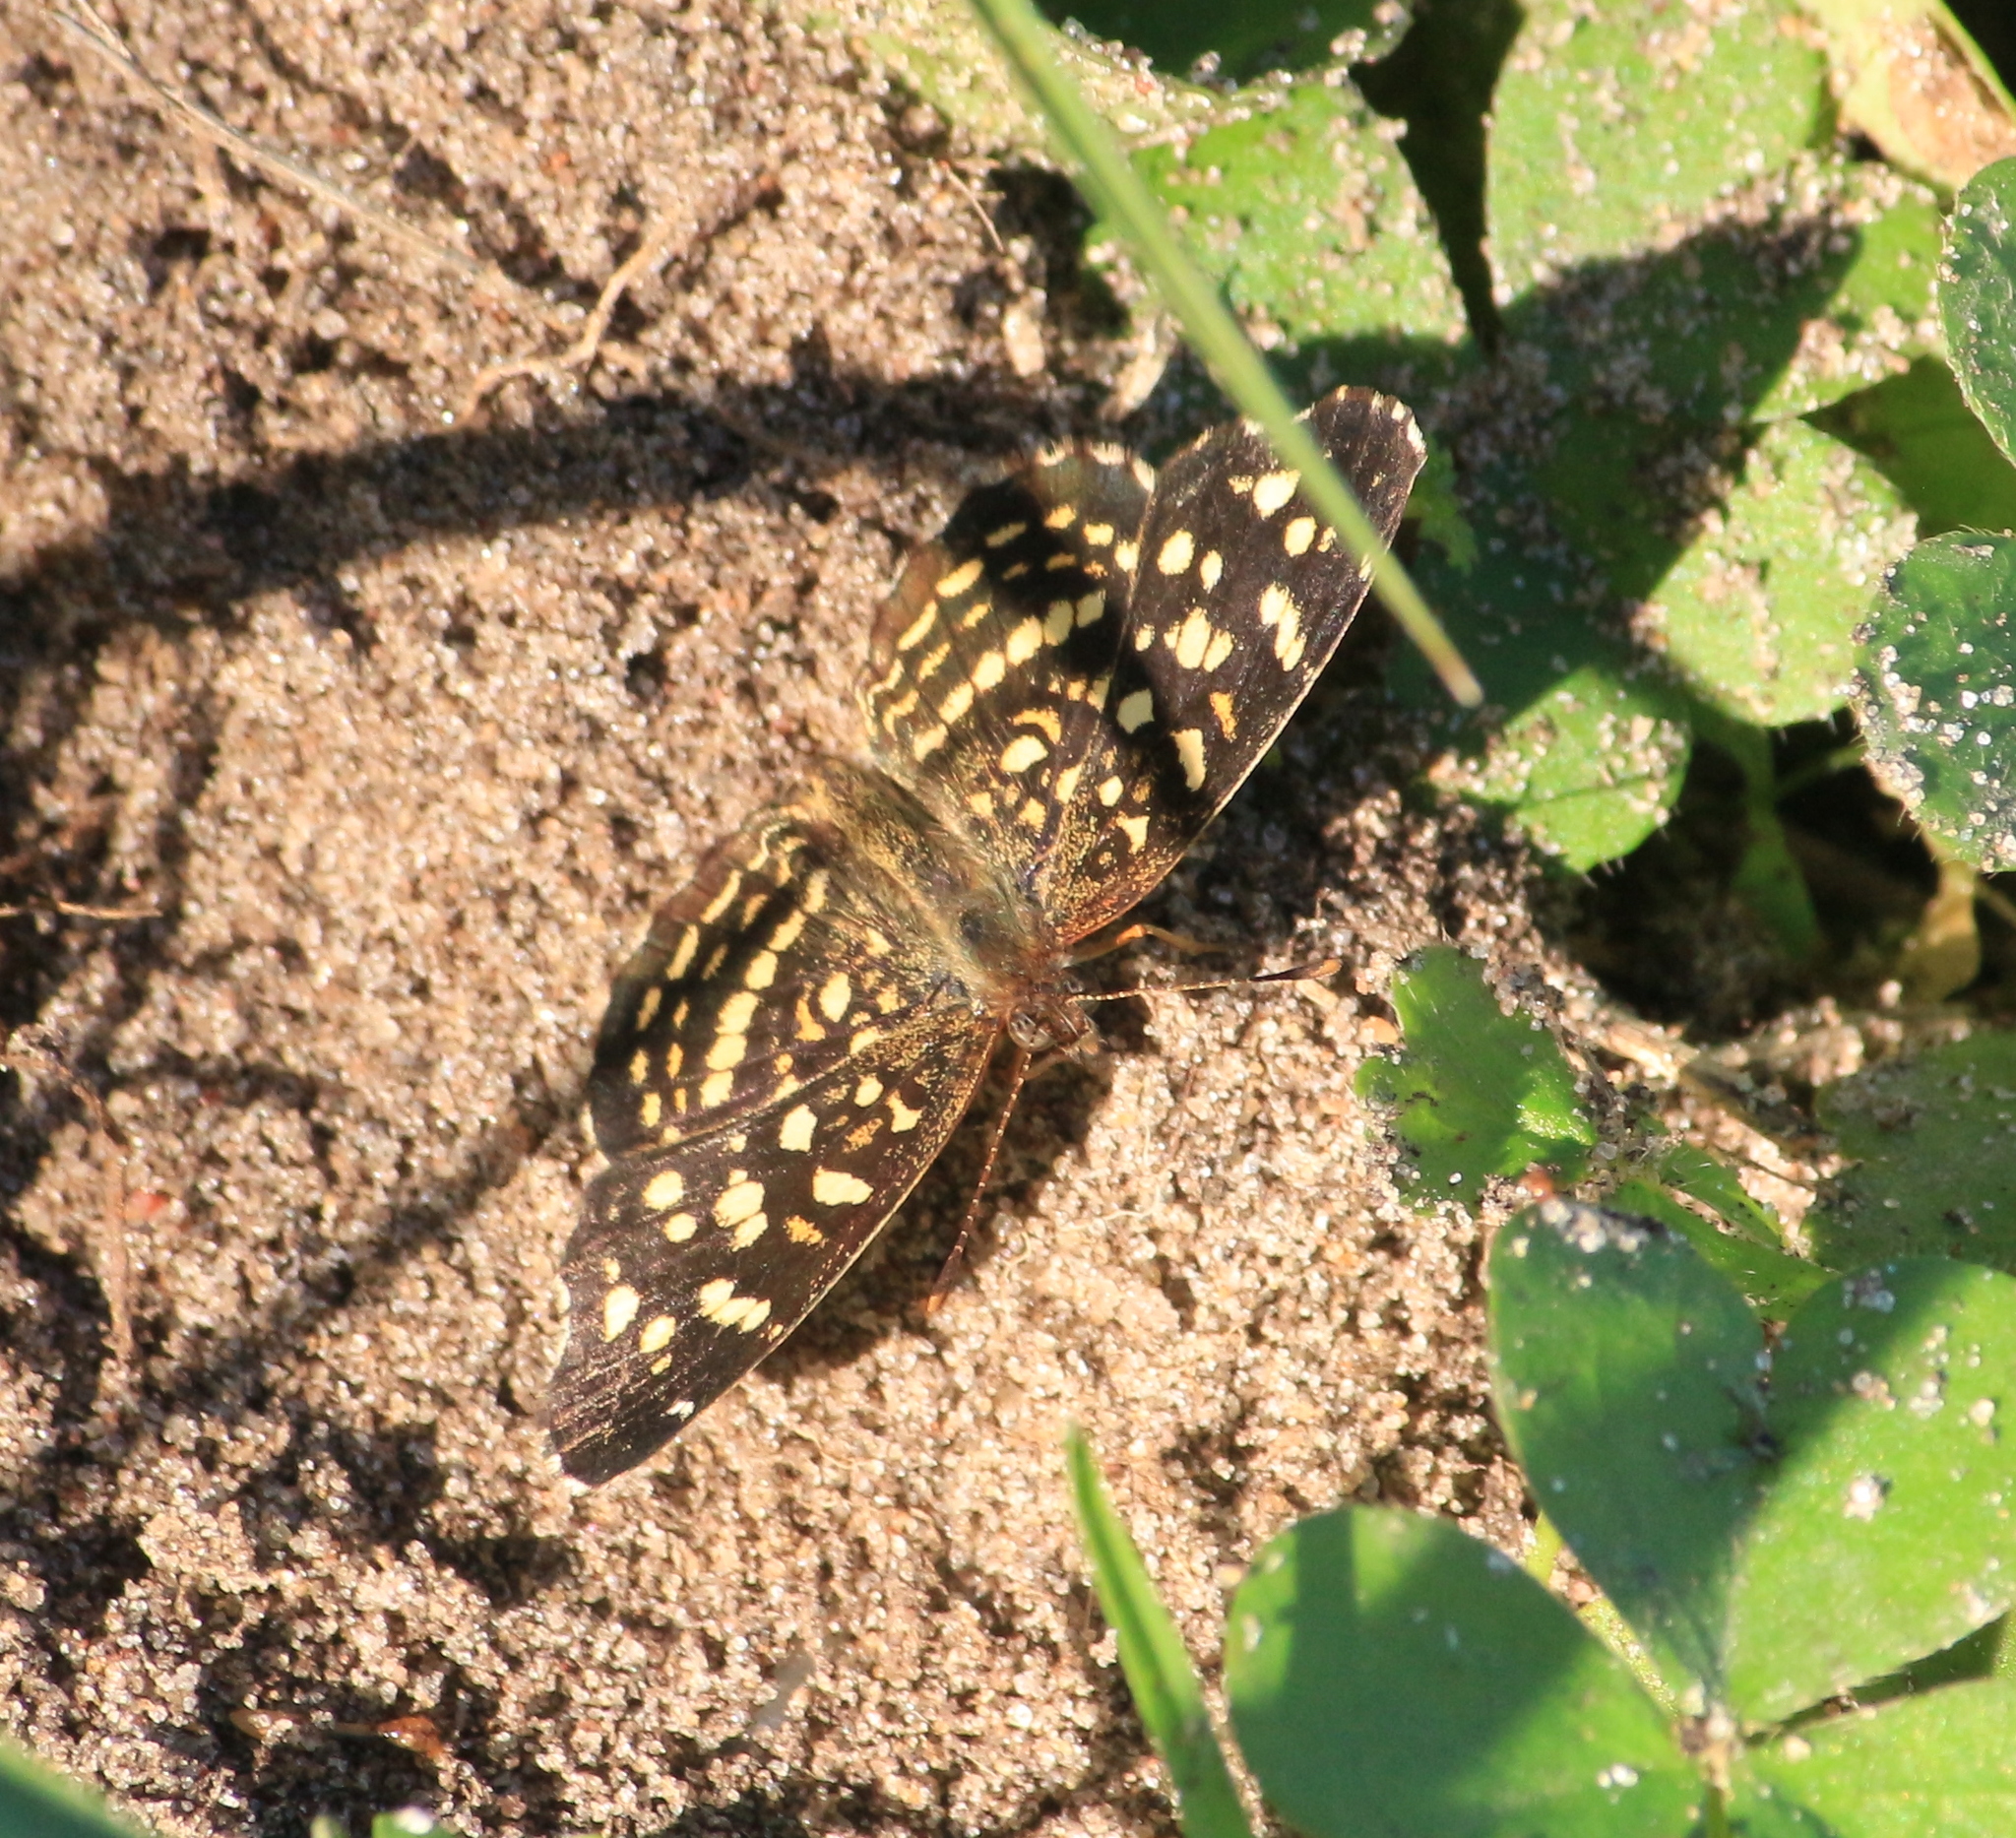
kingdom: Animalia
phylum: Arthropoda
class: Insecta
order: Lepidoptera
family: Nymphalidae
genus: Anthanassa
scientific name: Anthanassa hermas
